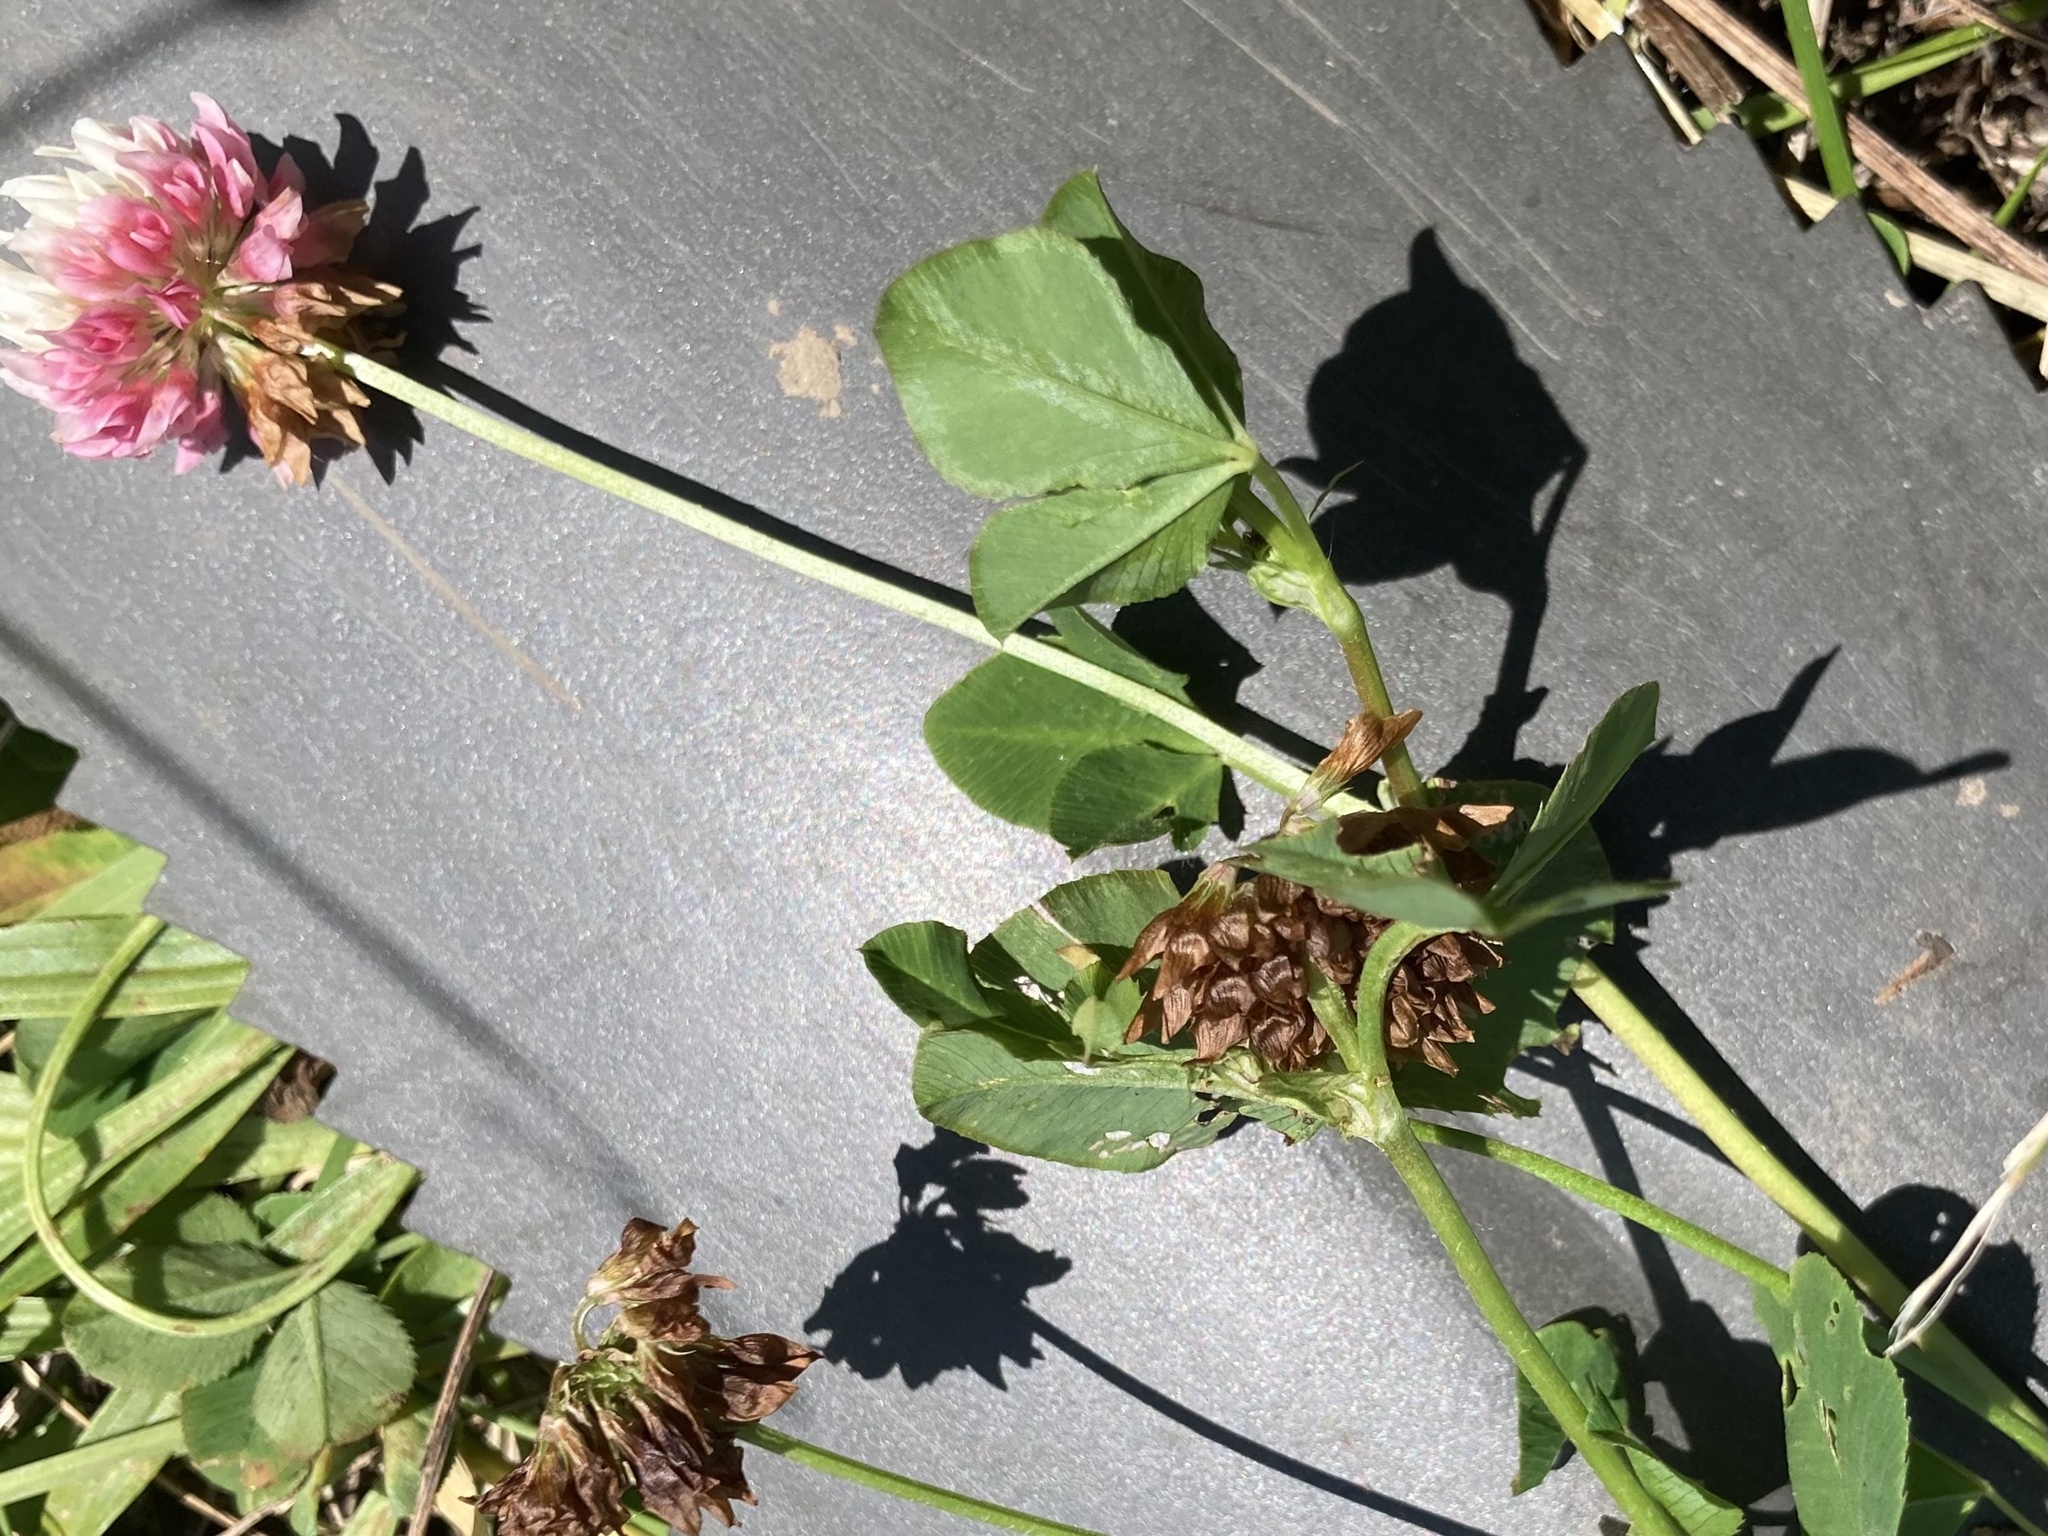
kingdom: Plantae
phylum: Tracheophyta
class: Magnoliopsida
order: Fabales
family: Fabaceae
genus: Trifolium
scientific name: Trifolium hybridum
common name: Alsike clover
